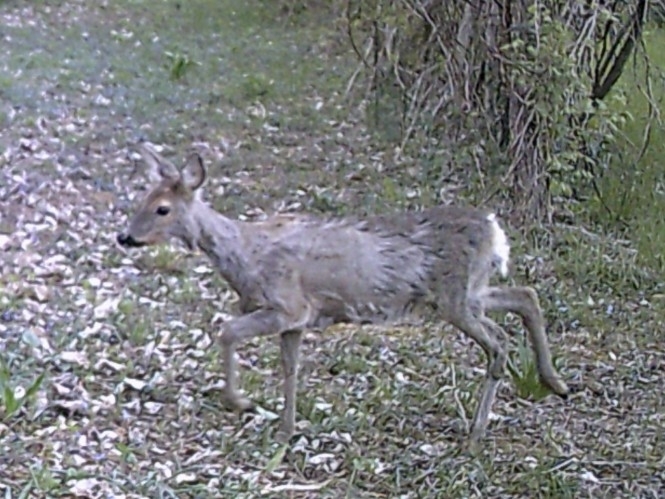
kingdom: Animalia
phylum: Chordata
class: Mammalia
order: Artiodactyla
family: Cervidae
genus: Capreolus
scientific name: Capreolus capreolus
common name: Western roe deer
